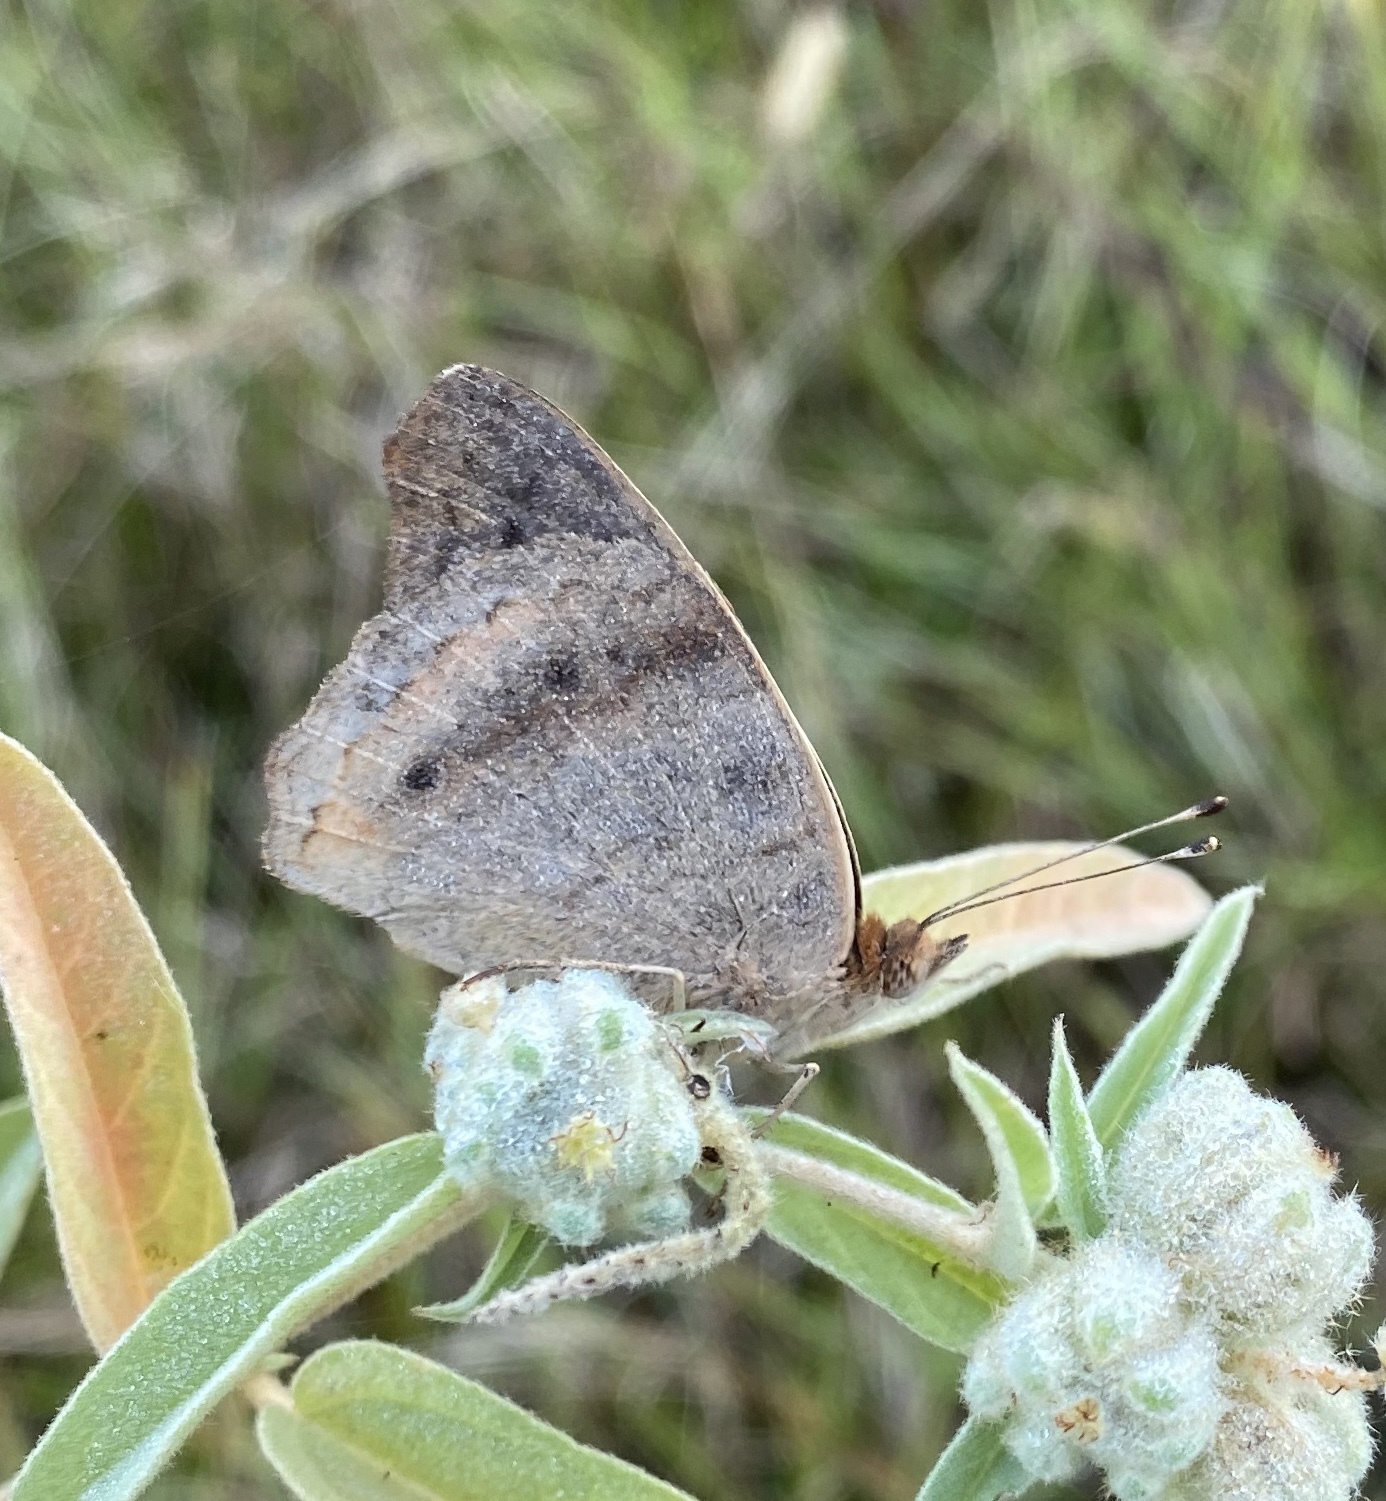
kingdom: Animalia
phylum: Arthropoda
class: Insecta
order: Lepidoptera
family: Nymphalidae
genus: Junonia
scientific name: Junonia coenia
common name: Common buckeye
